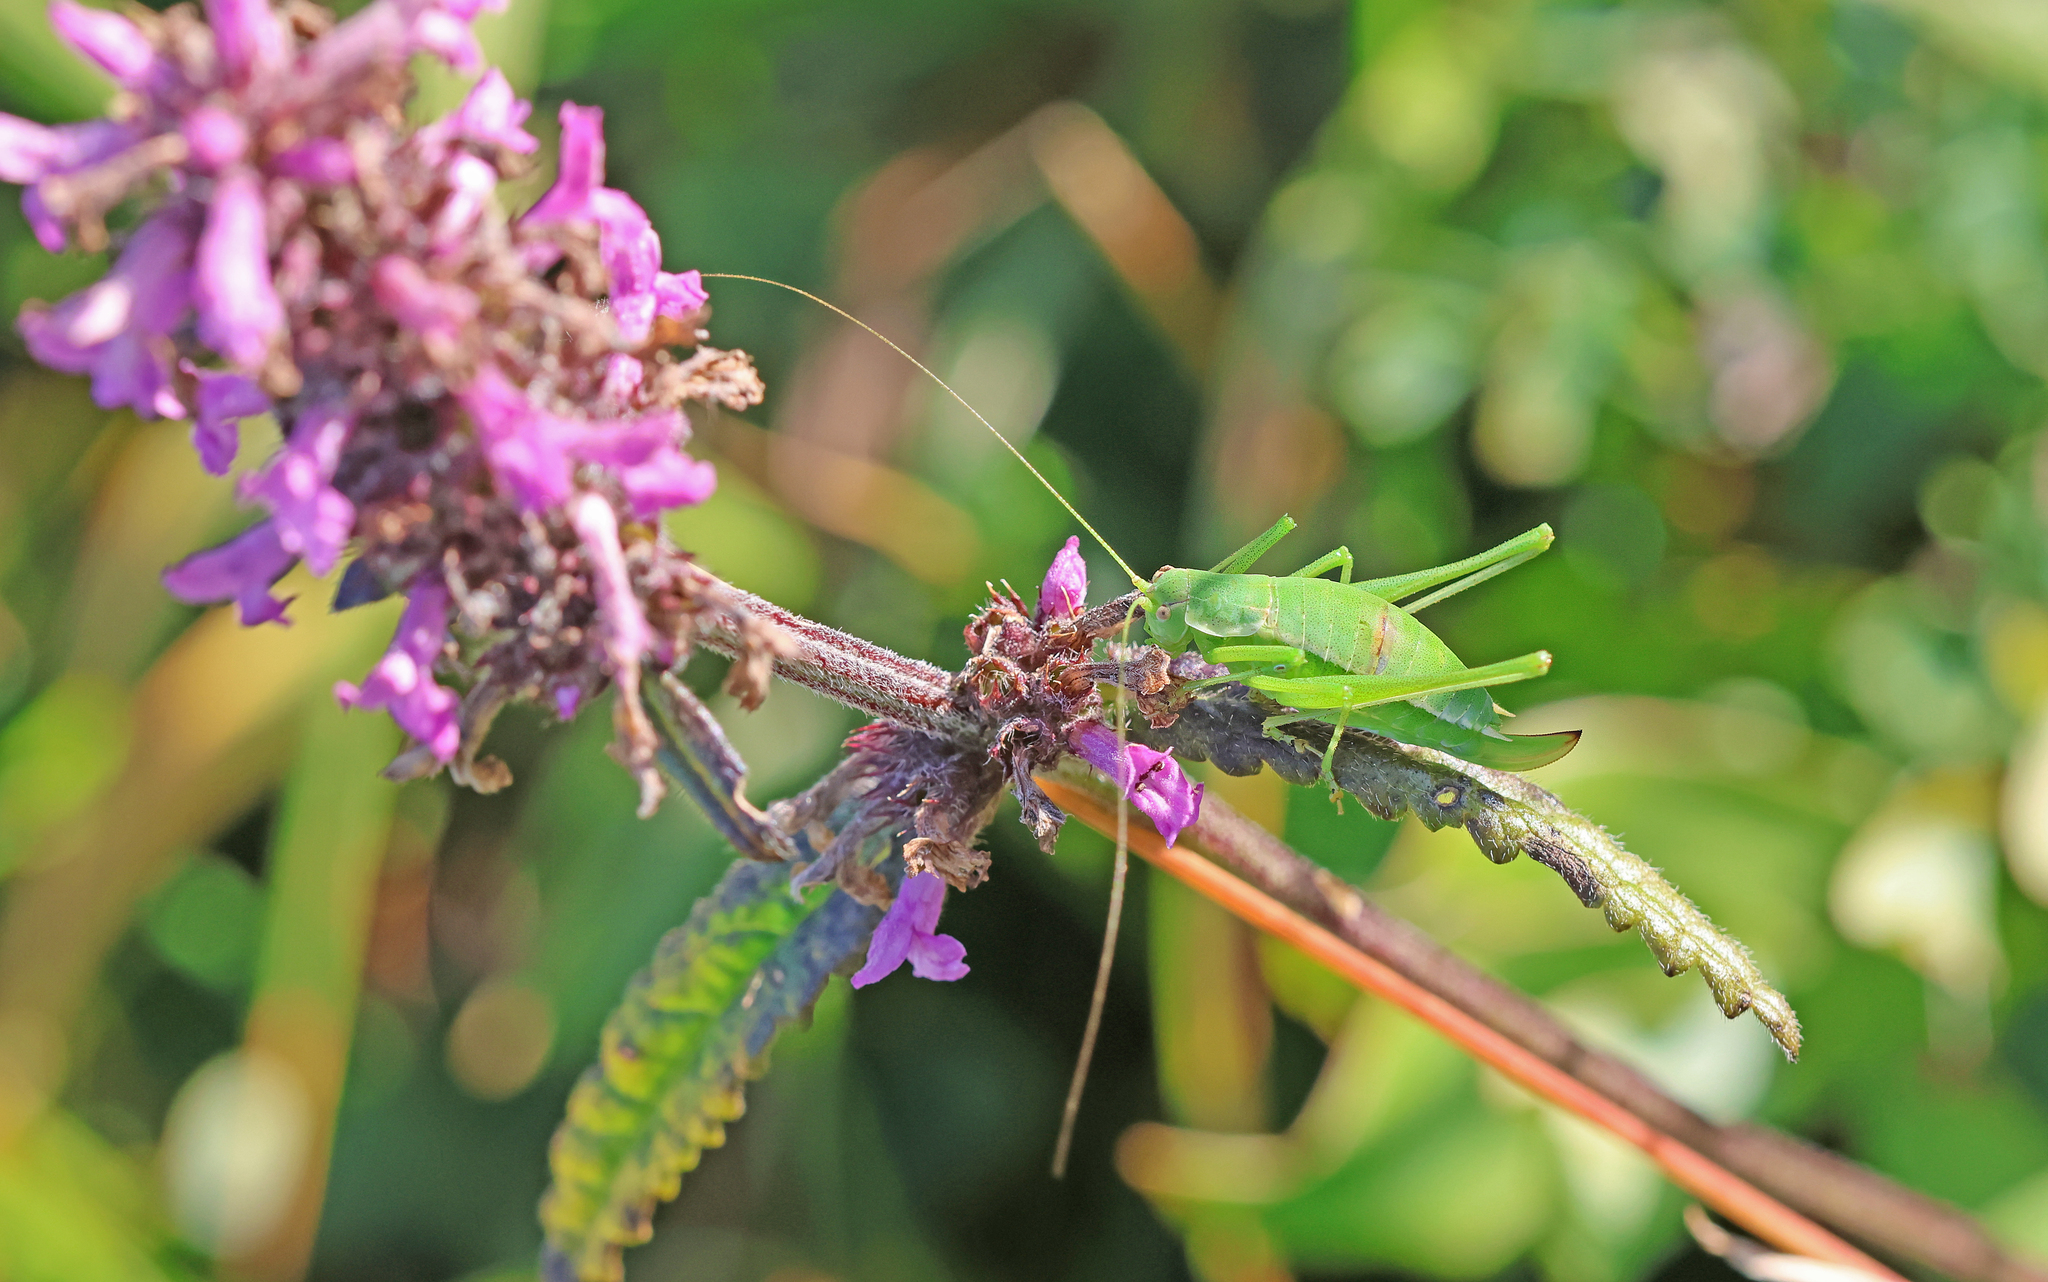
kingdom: Animalia
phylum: Arthropoda
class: Insecta
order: Orthoptera
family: Tettigoniidae
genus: Leptophyes
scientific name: Leptophyes boscii
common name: Balkan speckled bush-cricket
